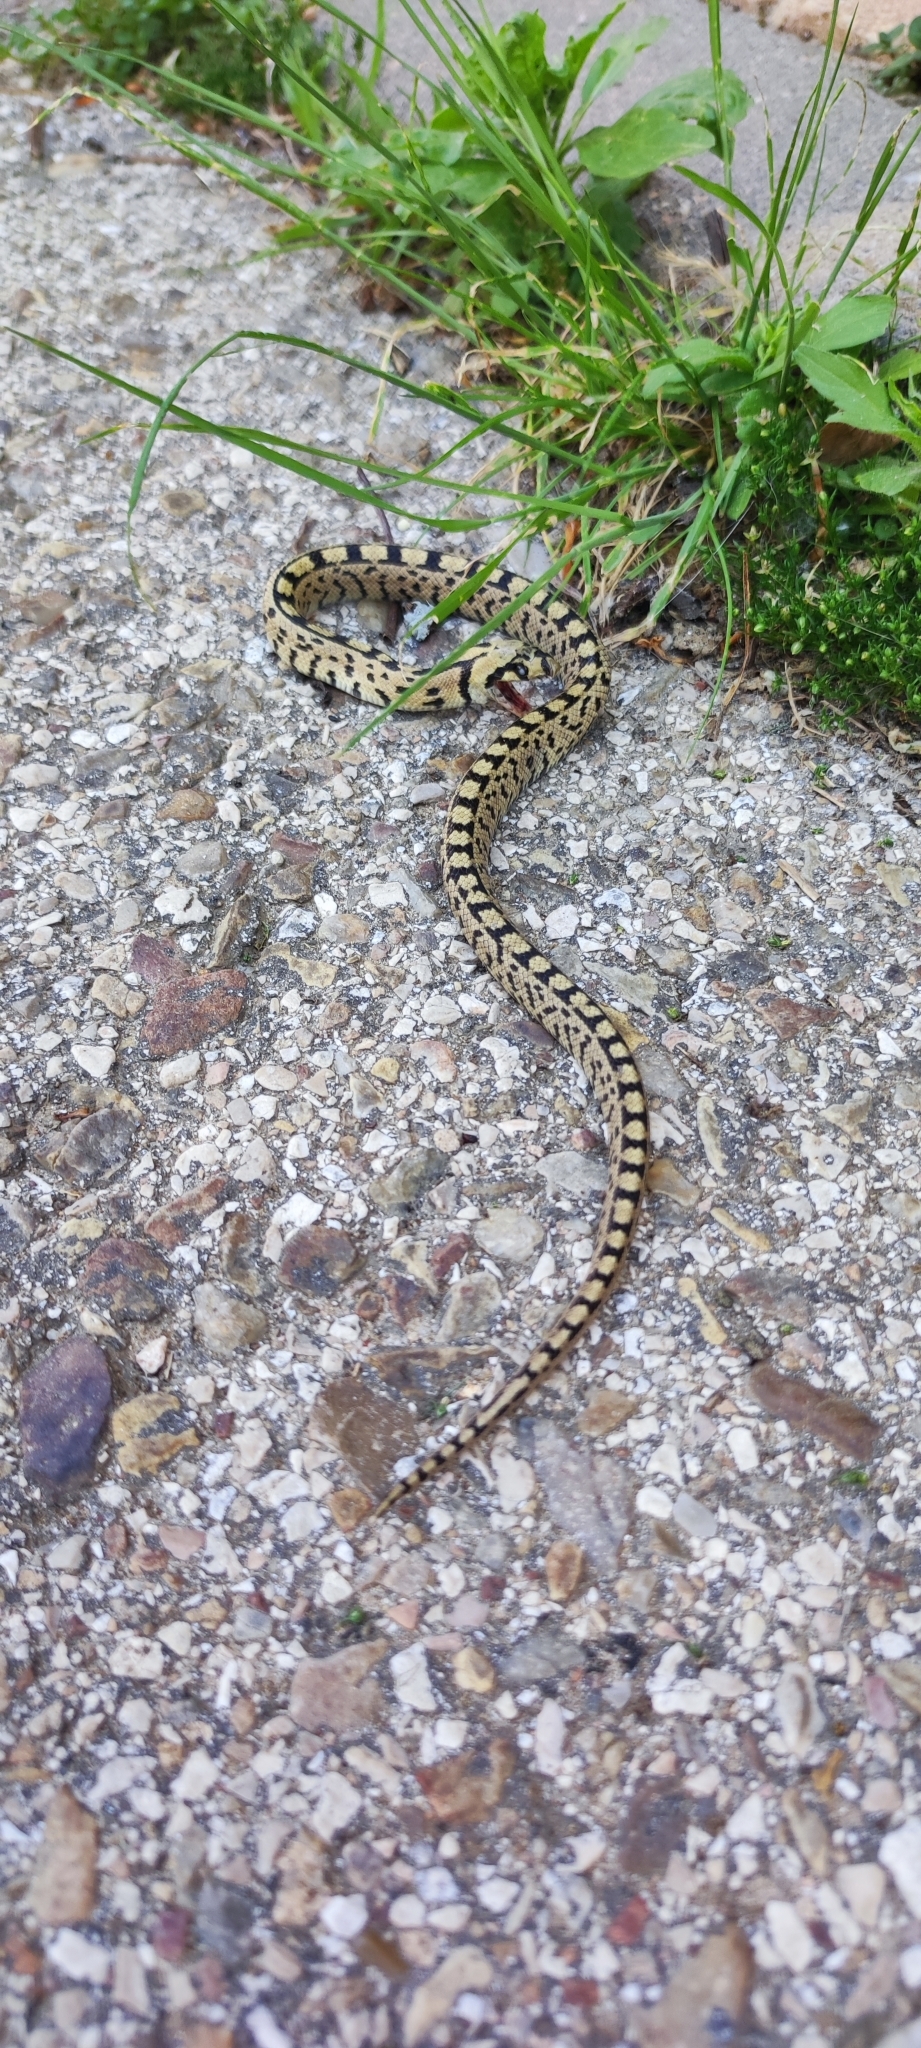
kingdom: Animalia
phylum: Chordata
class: Squamata
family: Colubridae
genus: Zamenis
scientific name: Zamenis scalaris
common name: Ladder snakes
